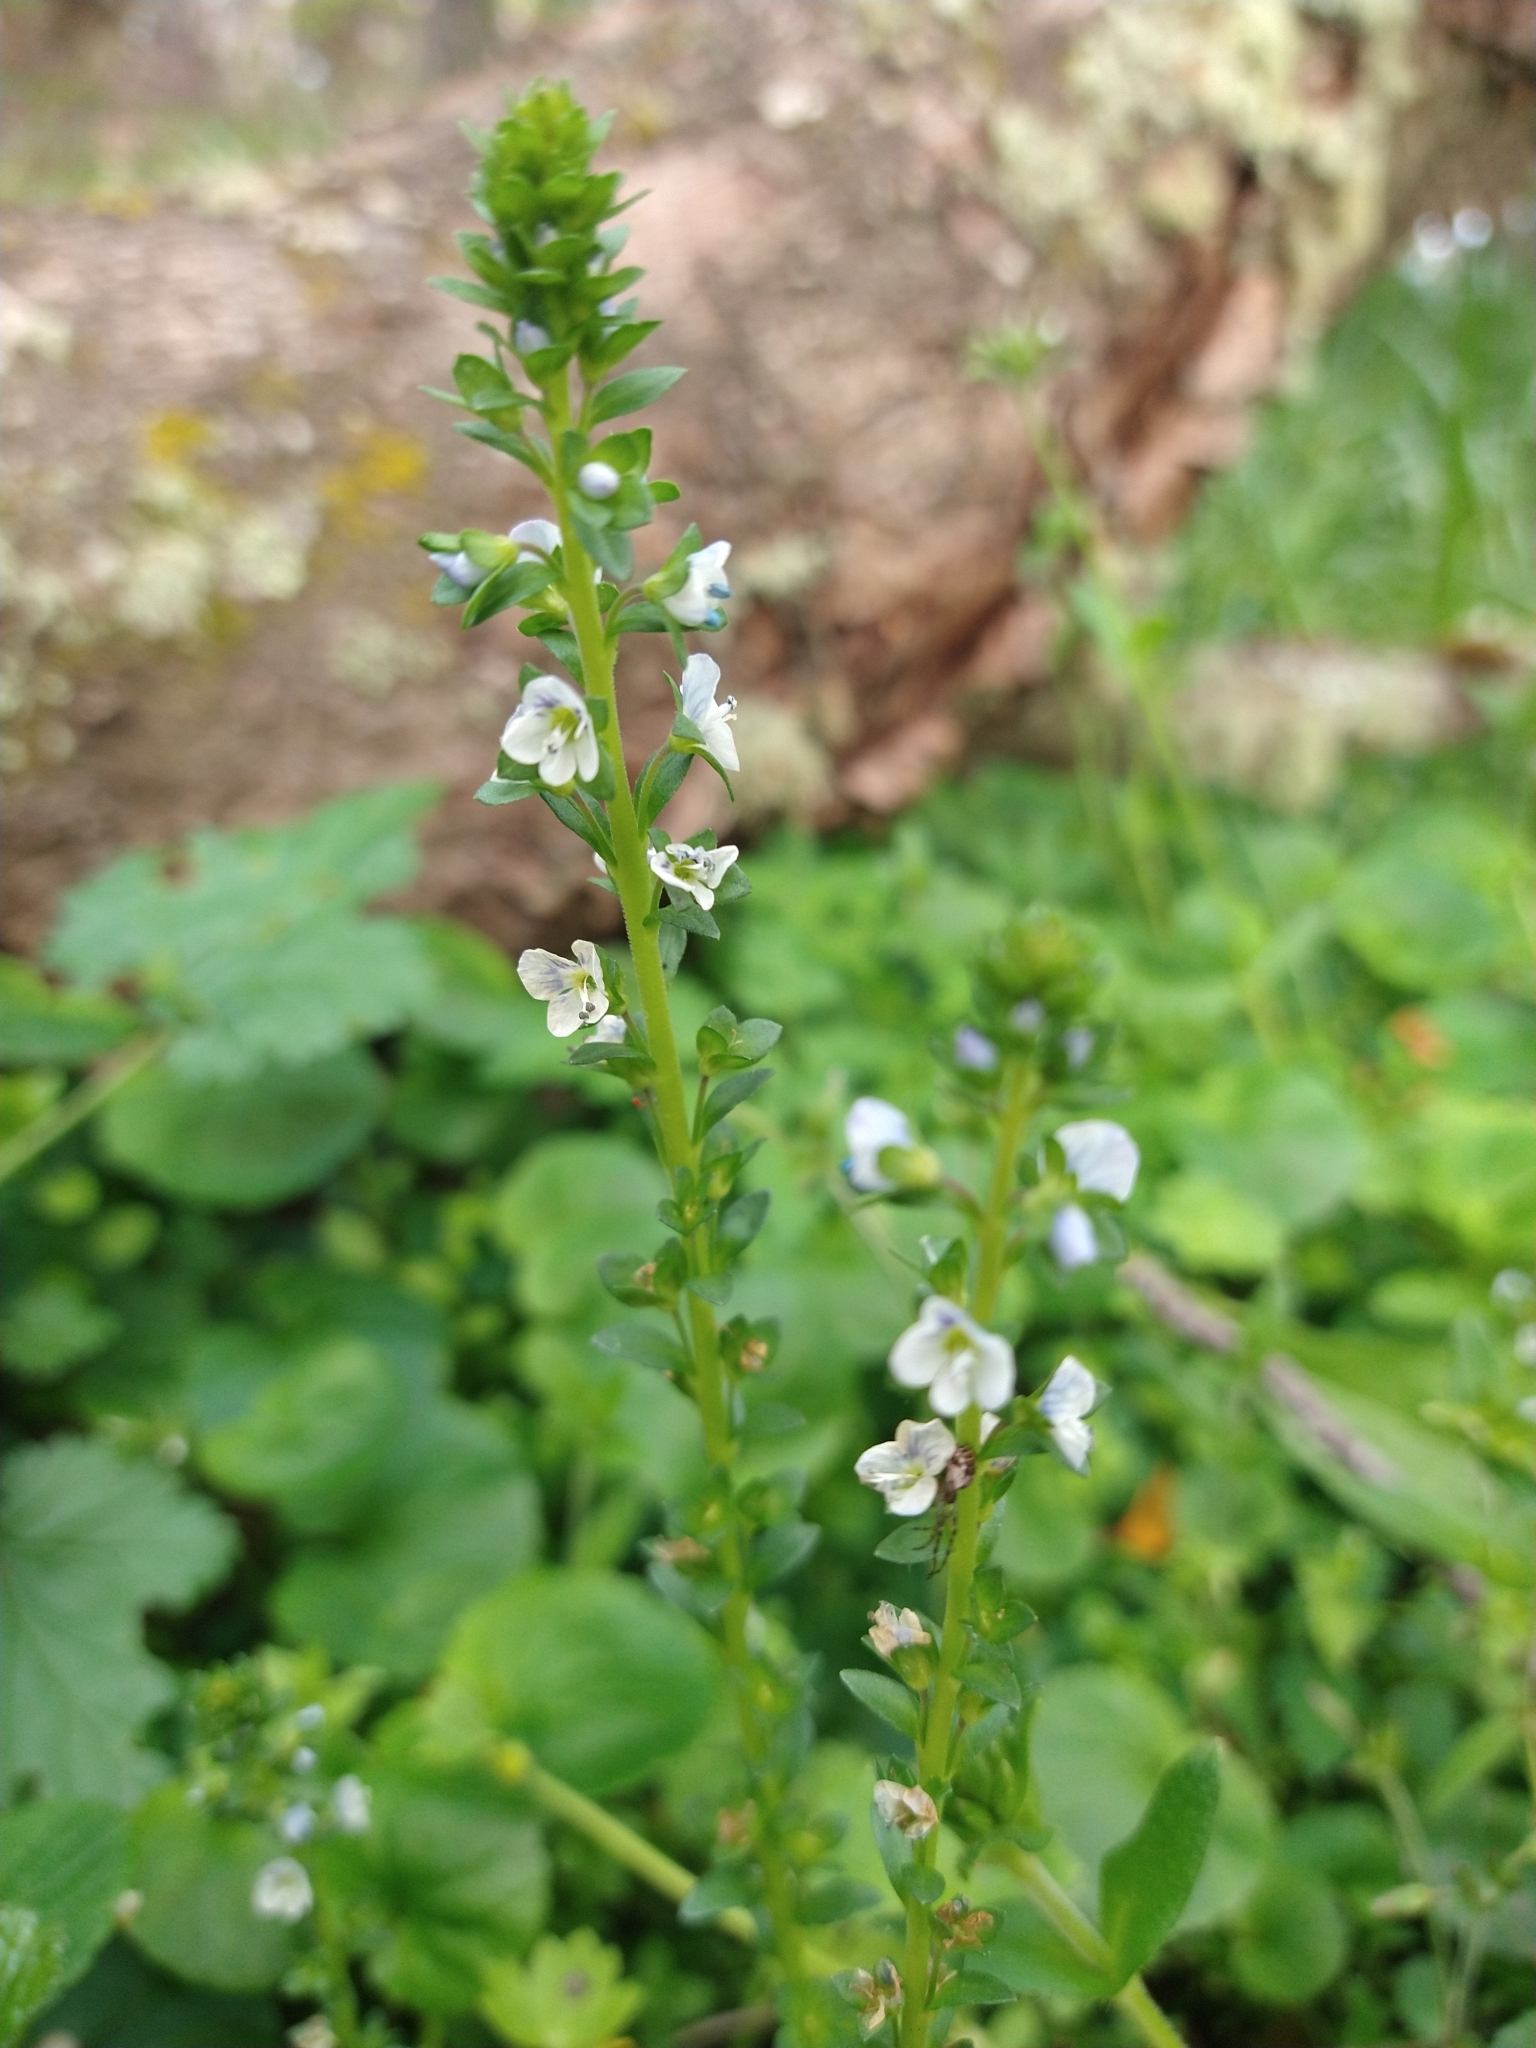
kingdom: Plantae
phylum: Tracheophyta
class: Magnoliopsida
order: Lamiales
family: Plantaginaceae
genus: Veronica
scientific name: Veronica serpyllifolia
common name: Thyme-leaved speedwell
